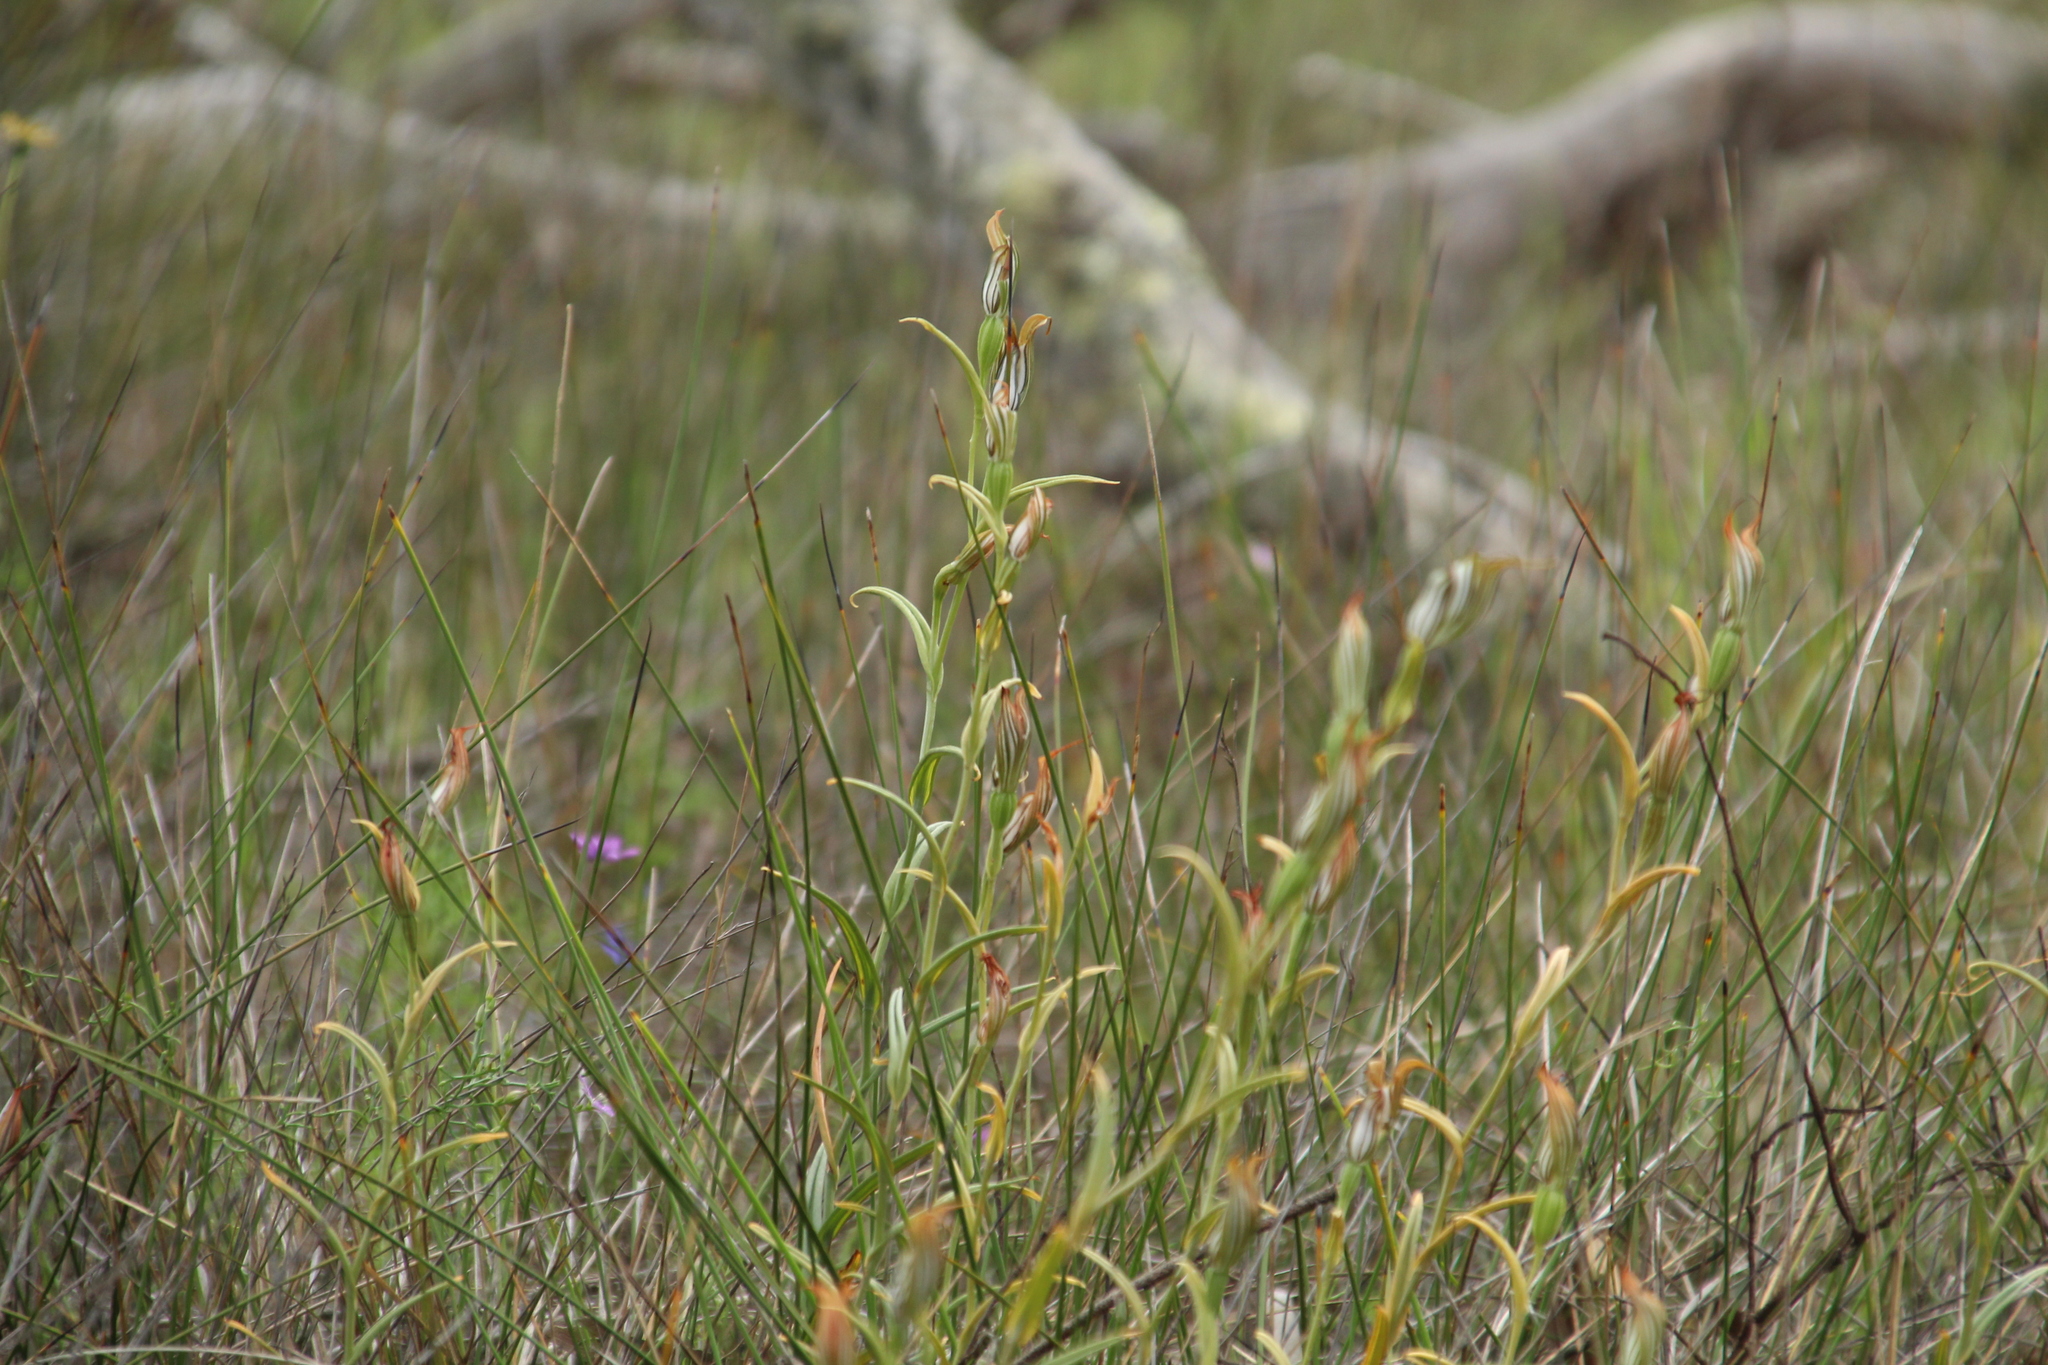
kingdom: Plantae
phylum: Tracheophyta
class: Liliopsida
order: Asparagales
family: Orchidaceae
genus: Pterostylis
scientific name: Pterostylis recurva
